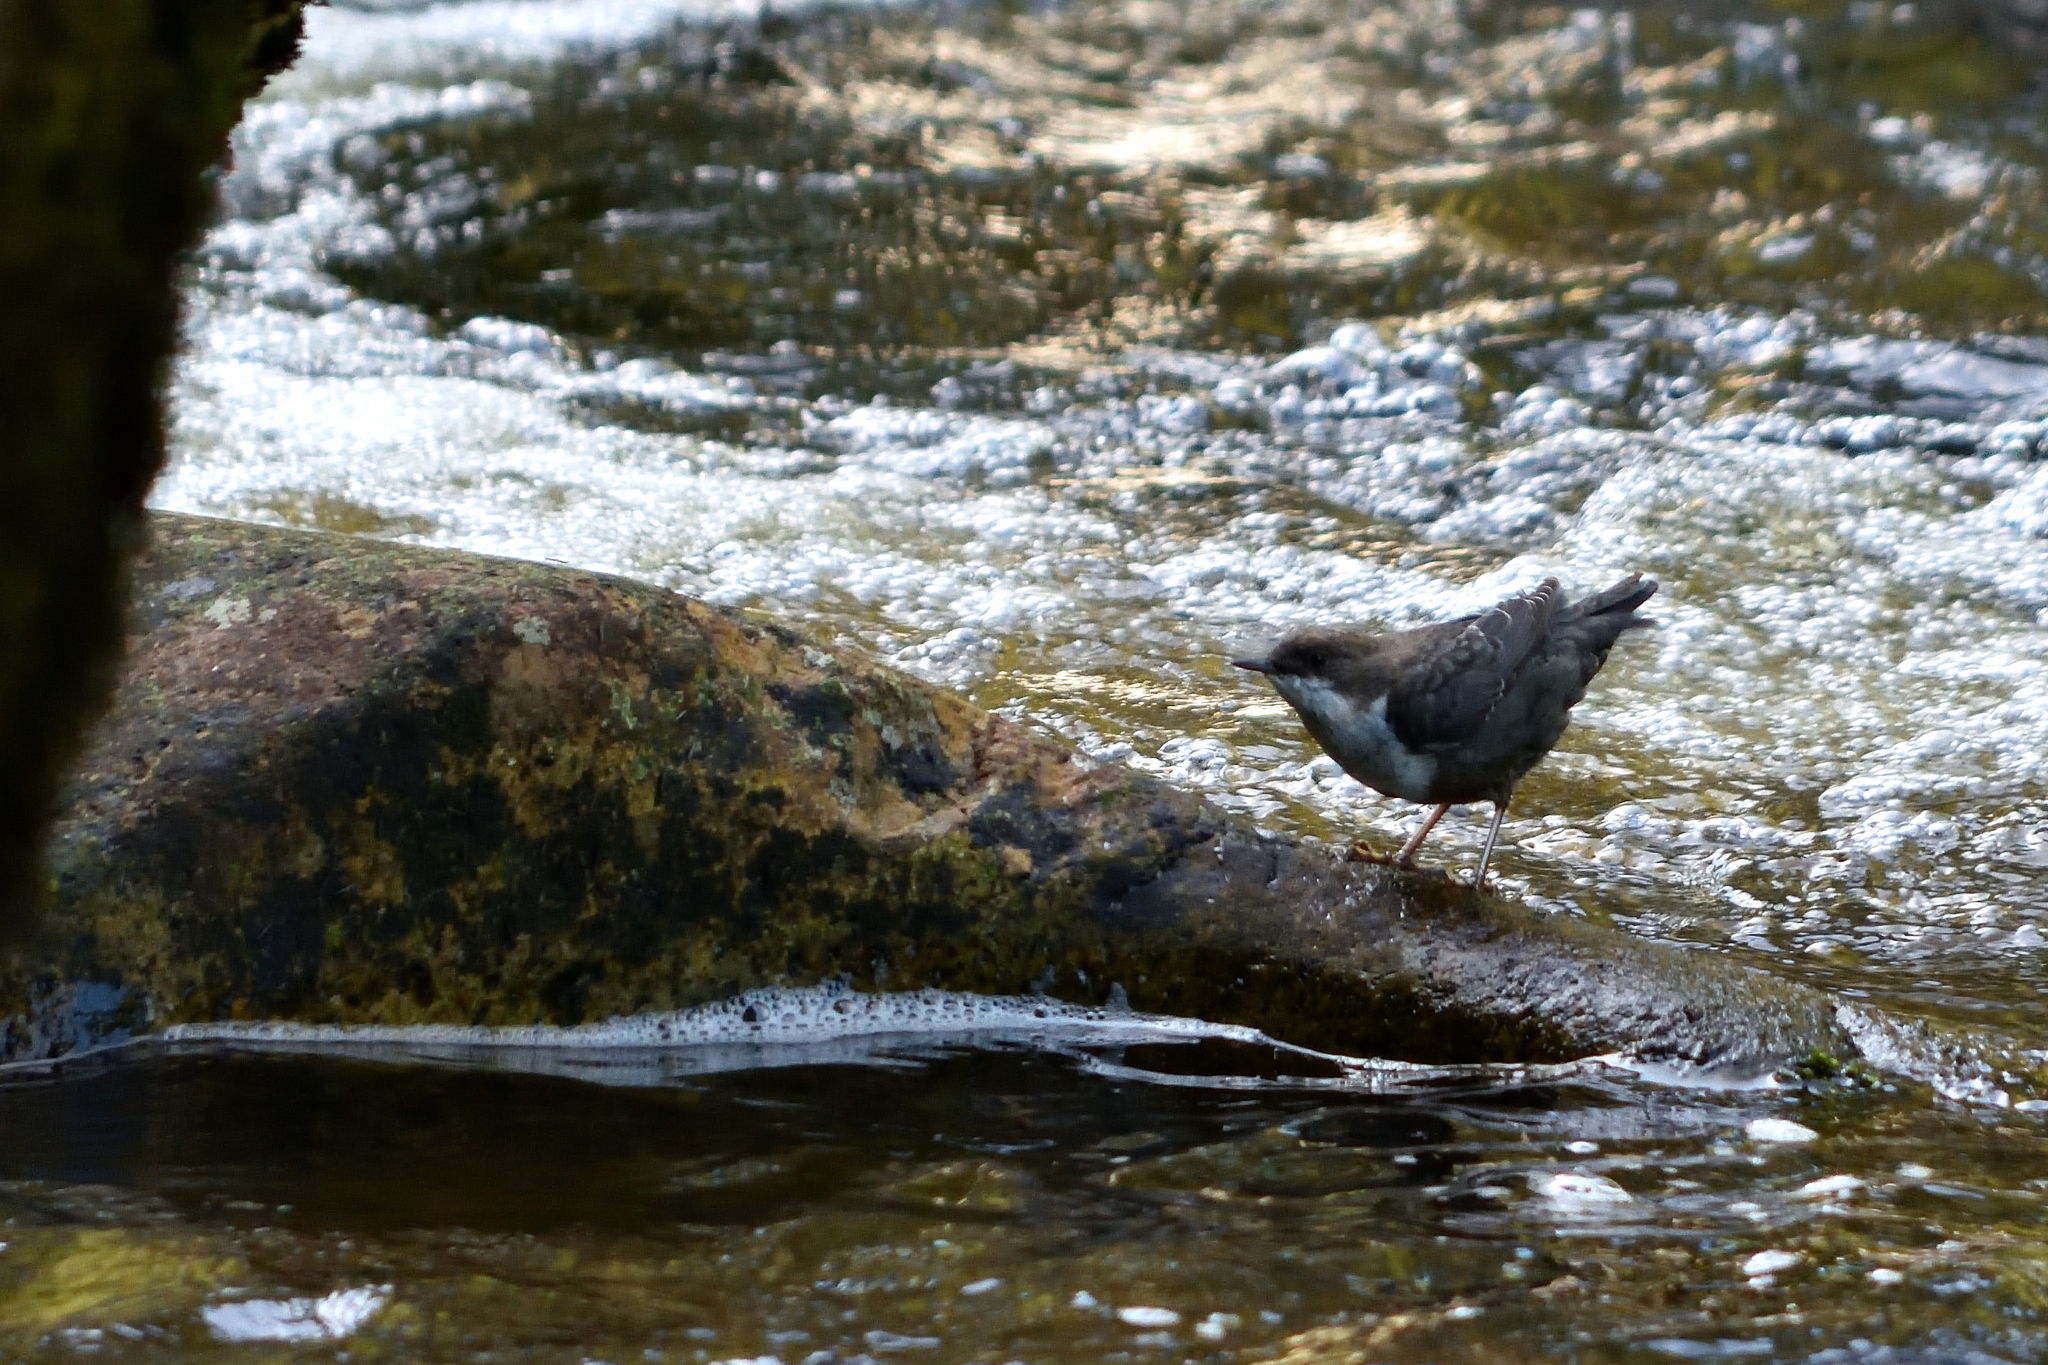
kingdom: Animalia
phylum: Chordata
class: Aves
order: Passeriformes
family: Cinclidae
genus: Cinclus
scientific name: Cinclus cinclus
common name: White-throated dipper
